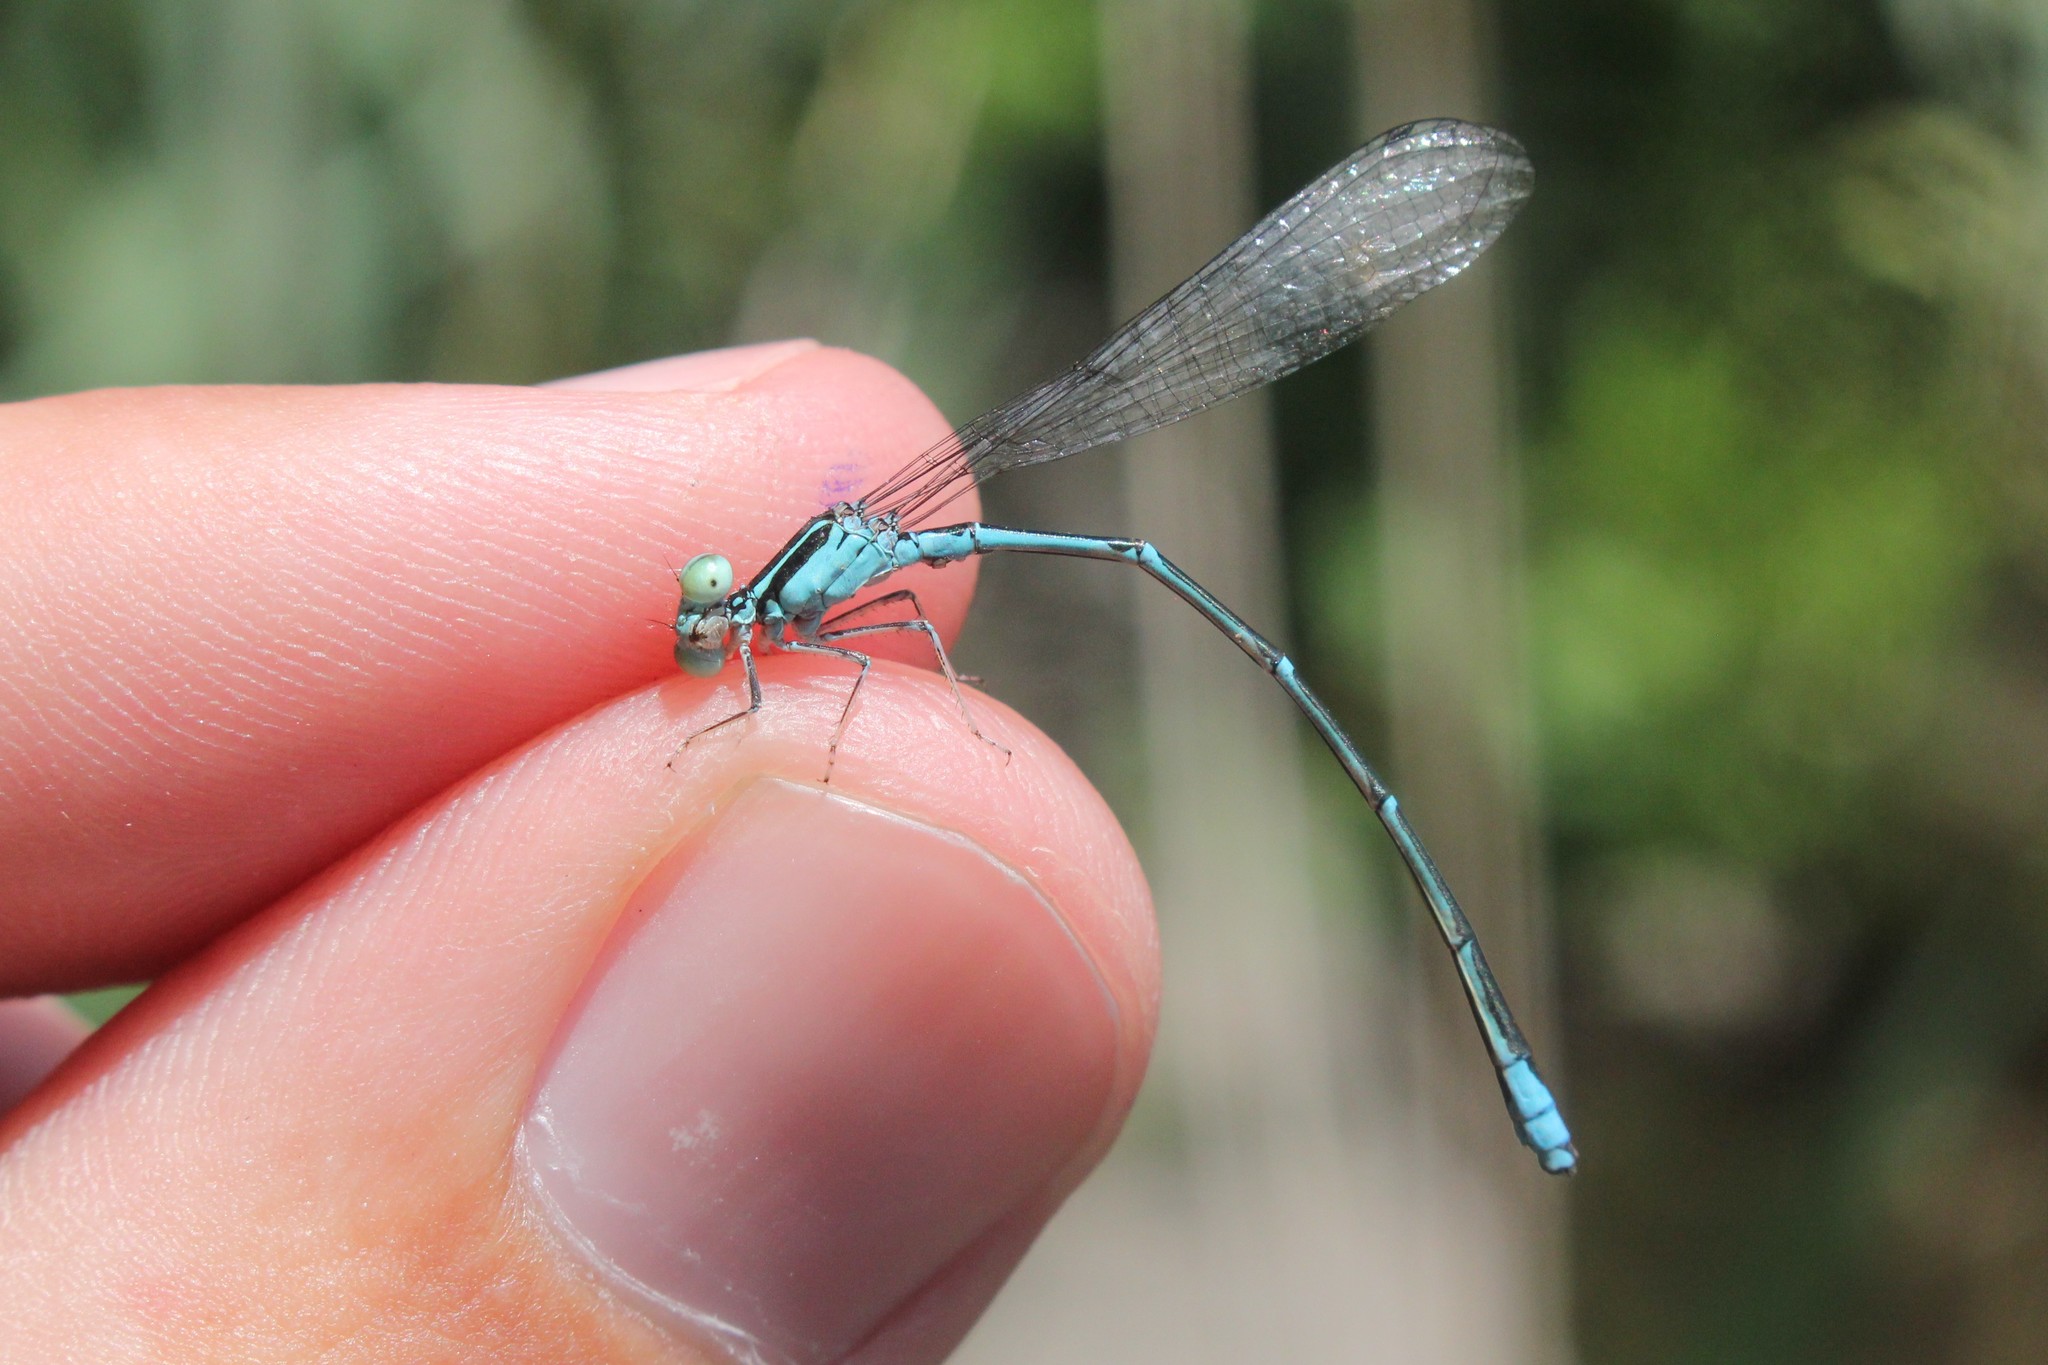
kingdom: Animalia
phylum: Arthropoda
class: Insecta
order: Odonata
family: Coenagrionidae
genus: Enallagma
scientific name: Enallagma exsulans
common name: Stream bluet
